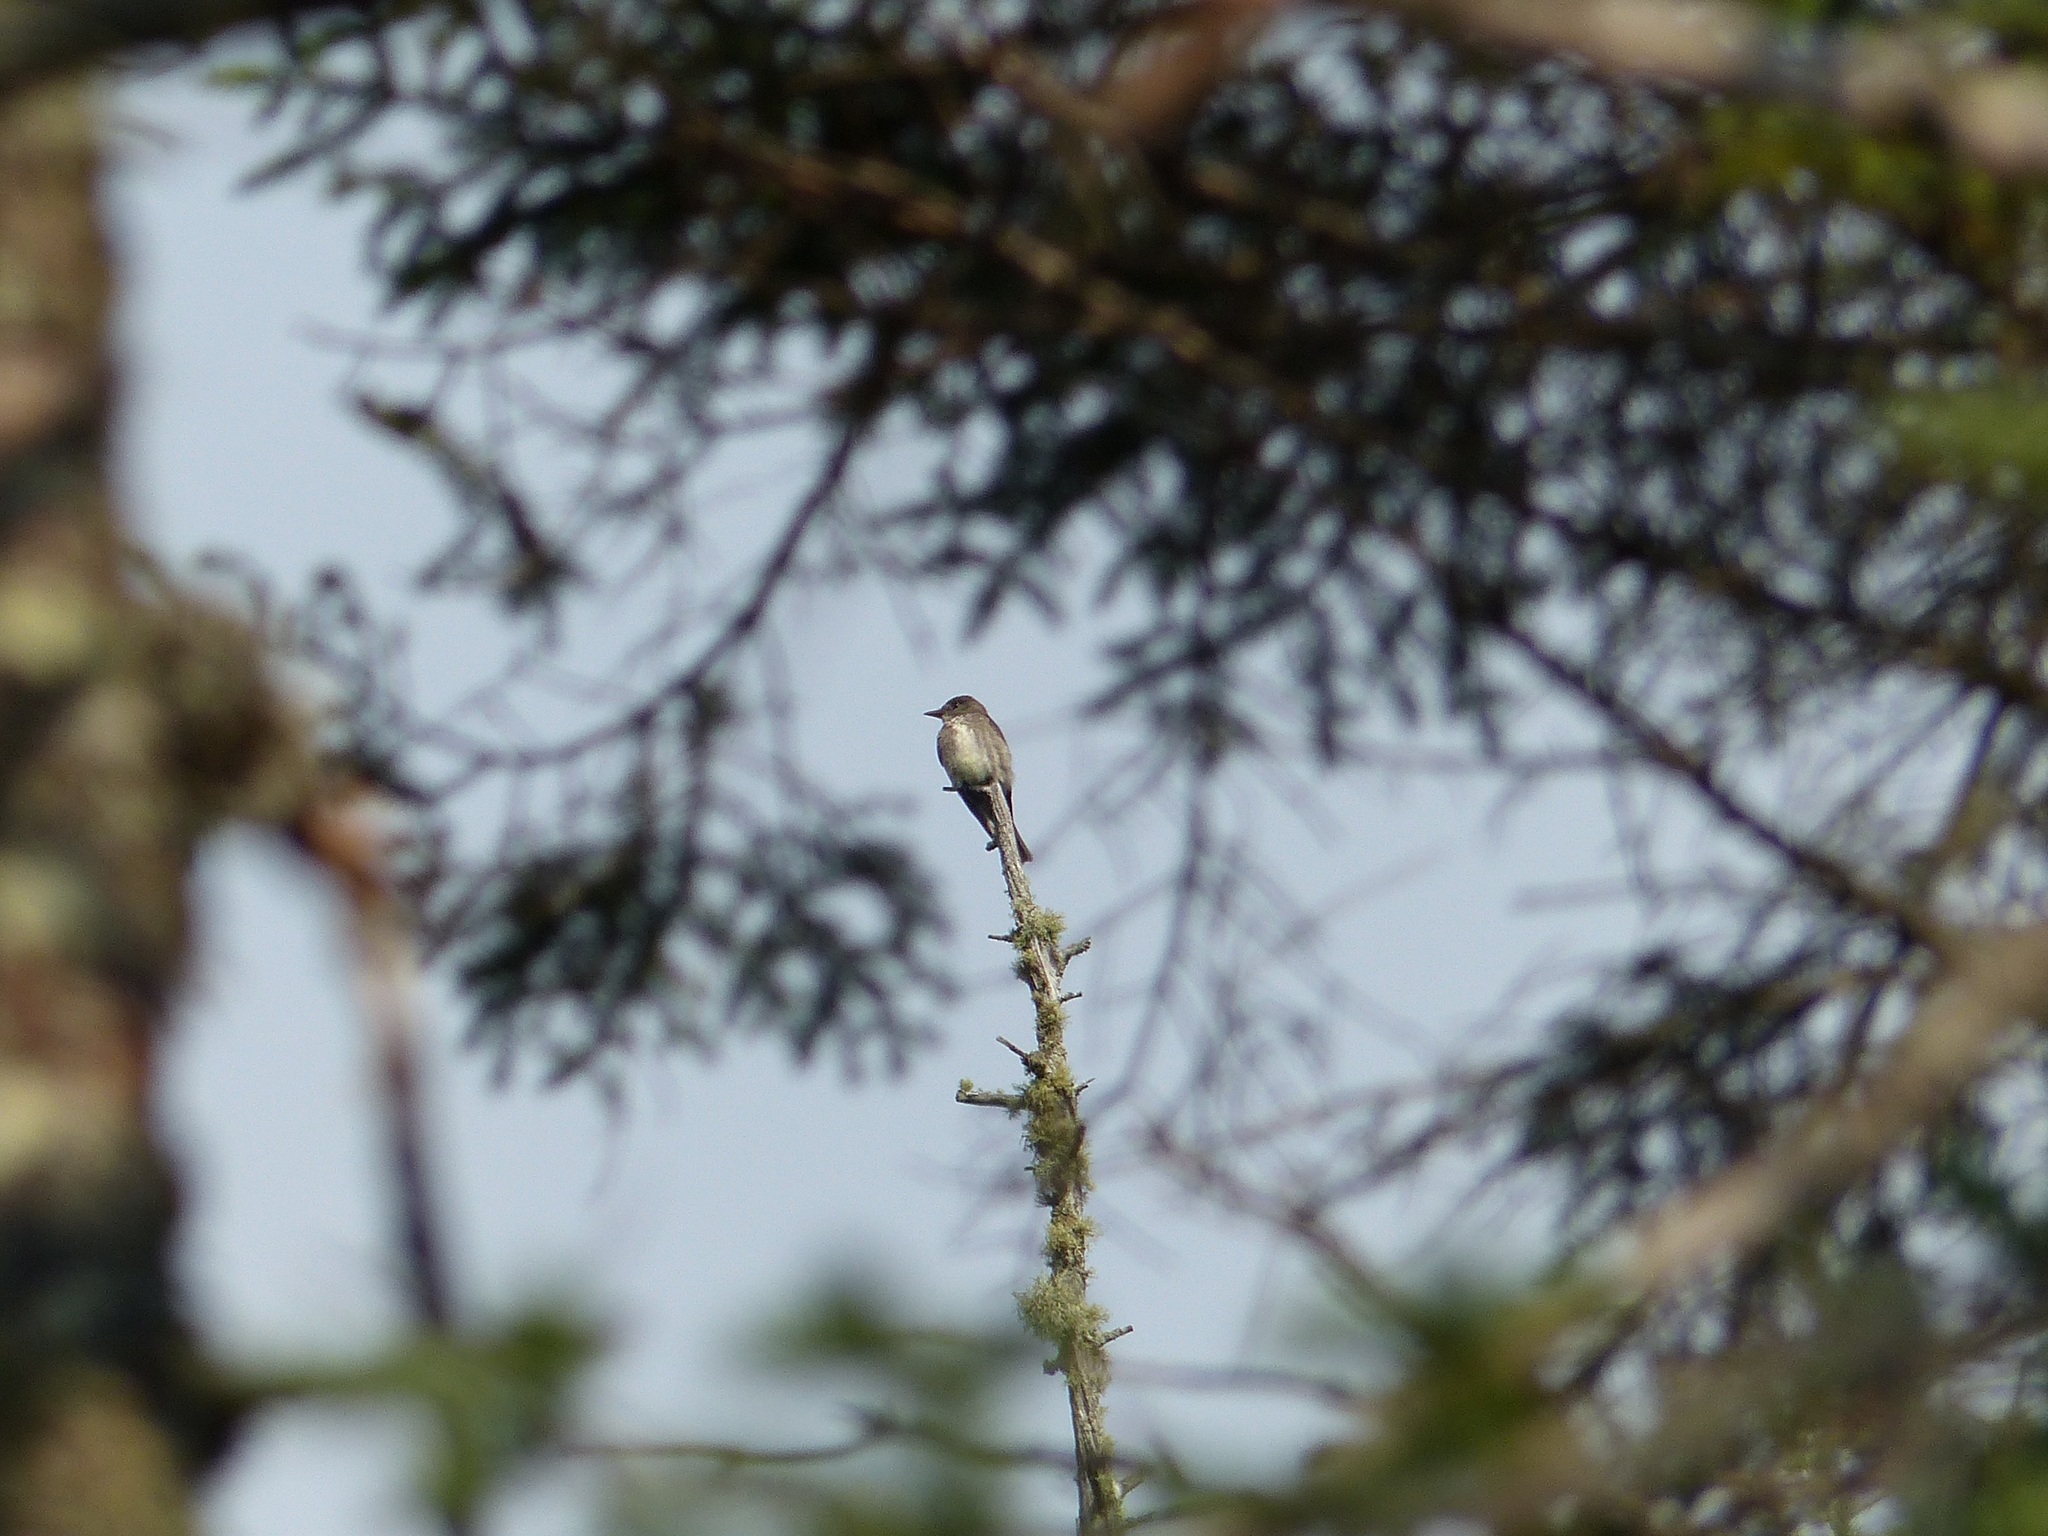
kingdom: Animalia
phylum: Chordata
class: Aves
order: Passeriformes
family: Tyrannidae
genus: Contopus
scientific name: Contopus cooperi
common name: Olive-sided flycatcher
